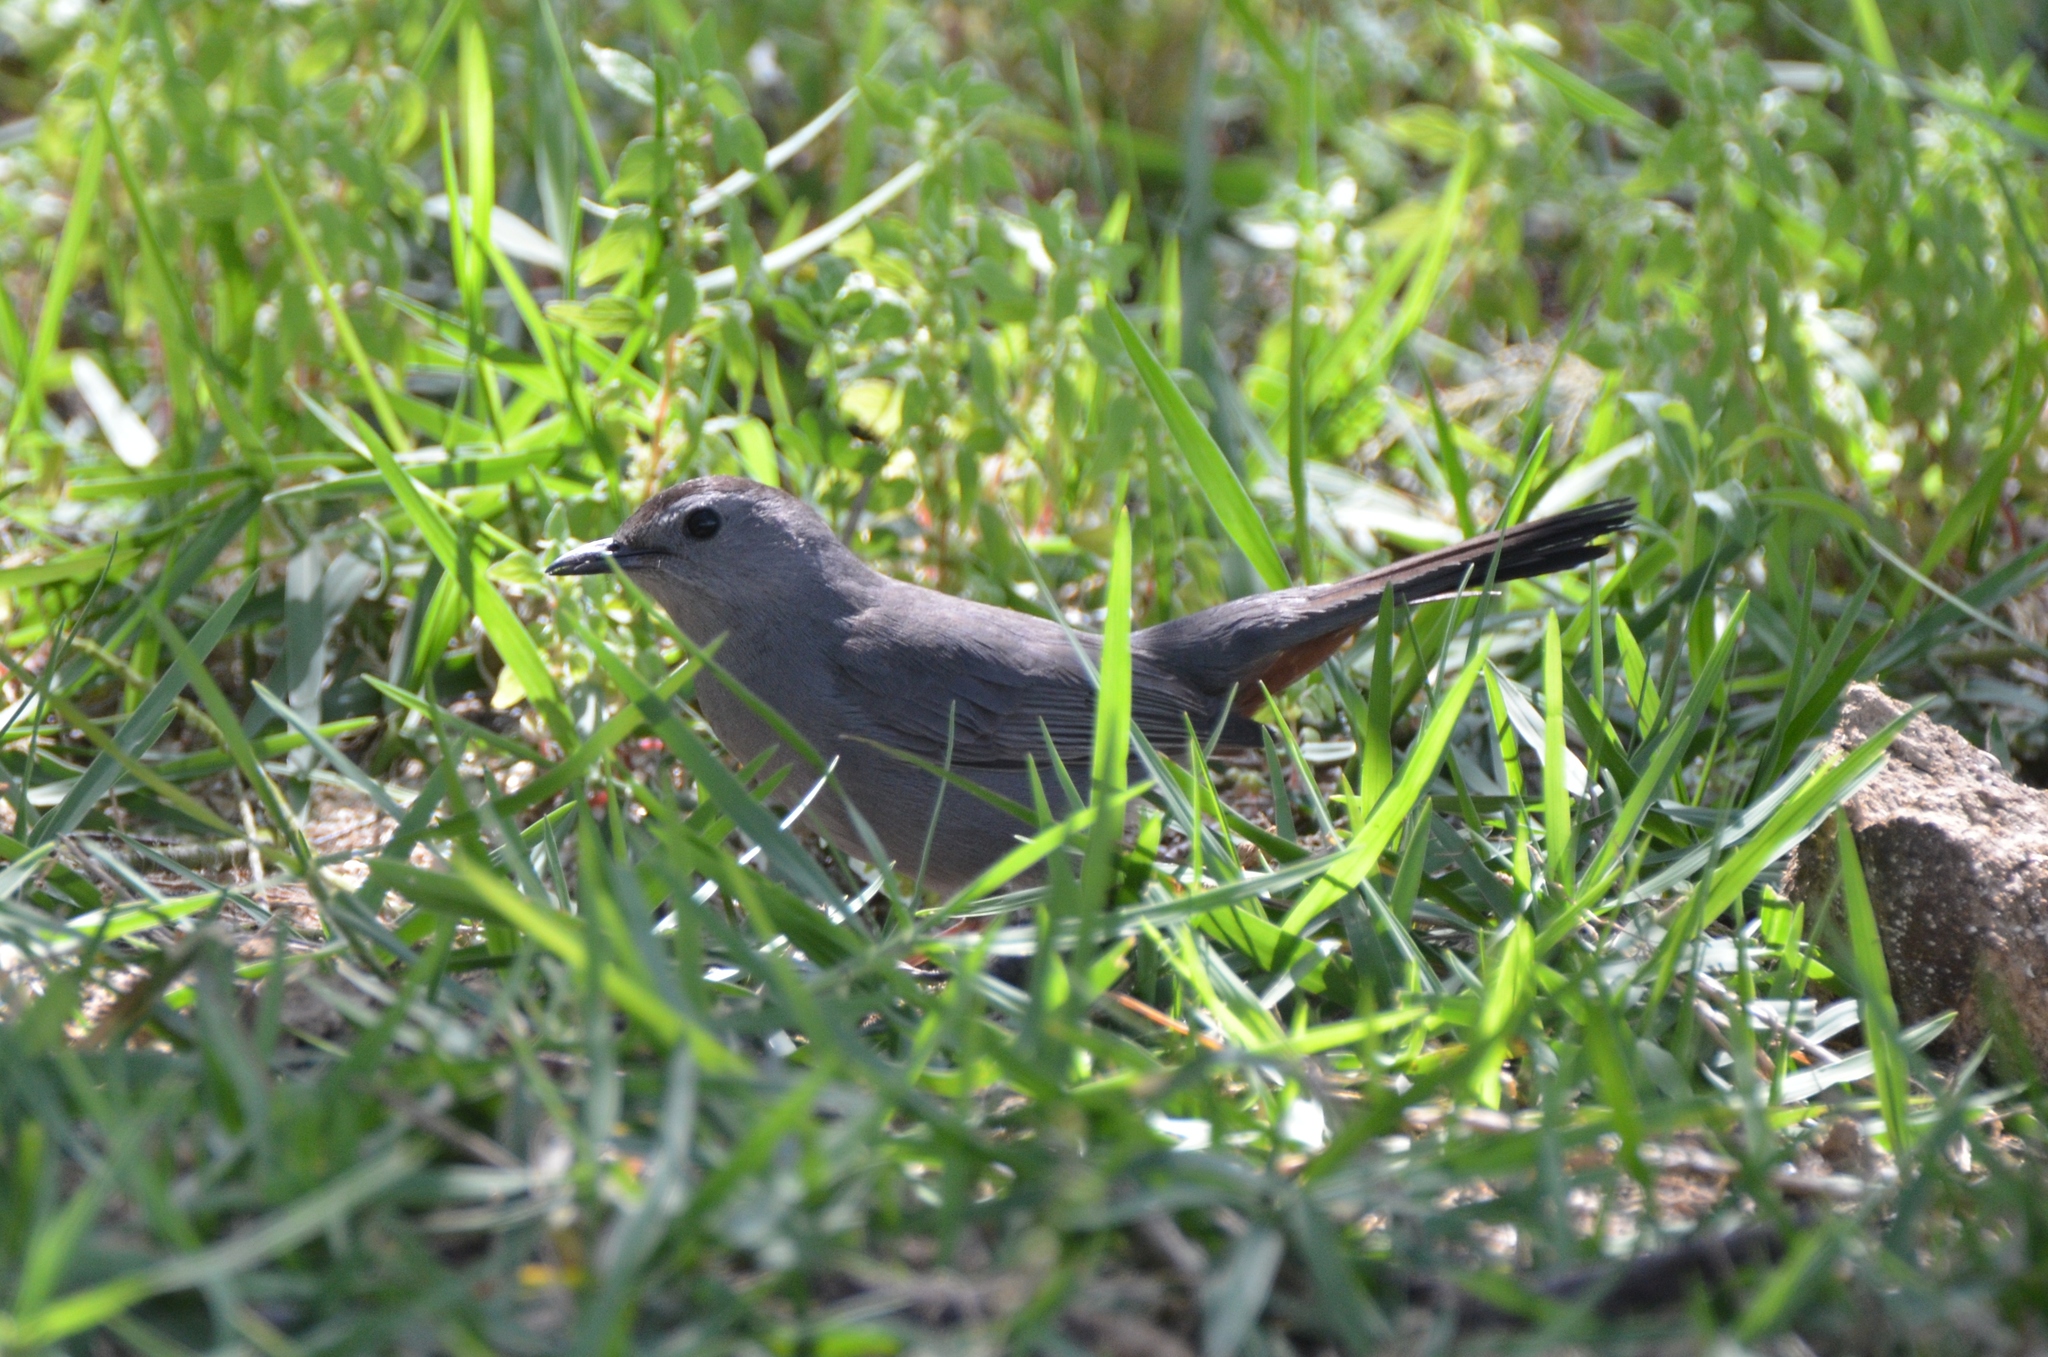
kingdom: Animalia
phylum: Chordata
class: Aves
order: Passeriformes
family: Mimidae
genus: Dumetella
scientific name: Dumetella carolinensis
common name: Gray catbird
